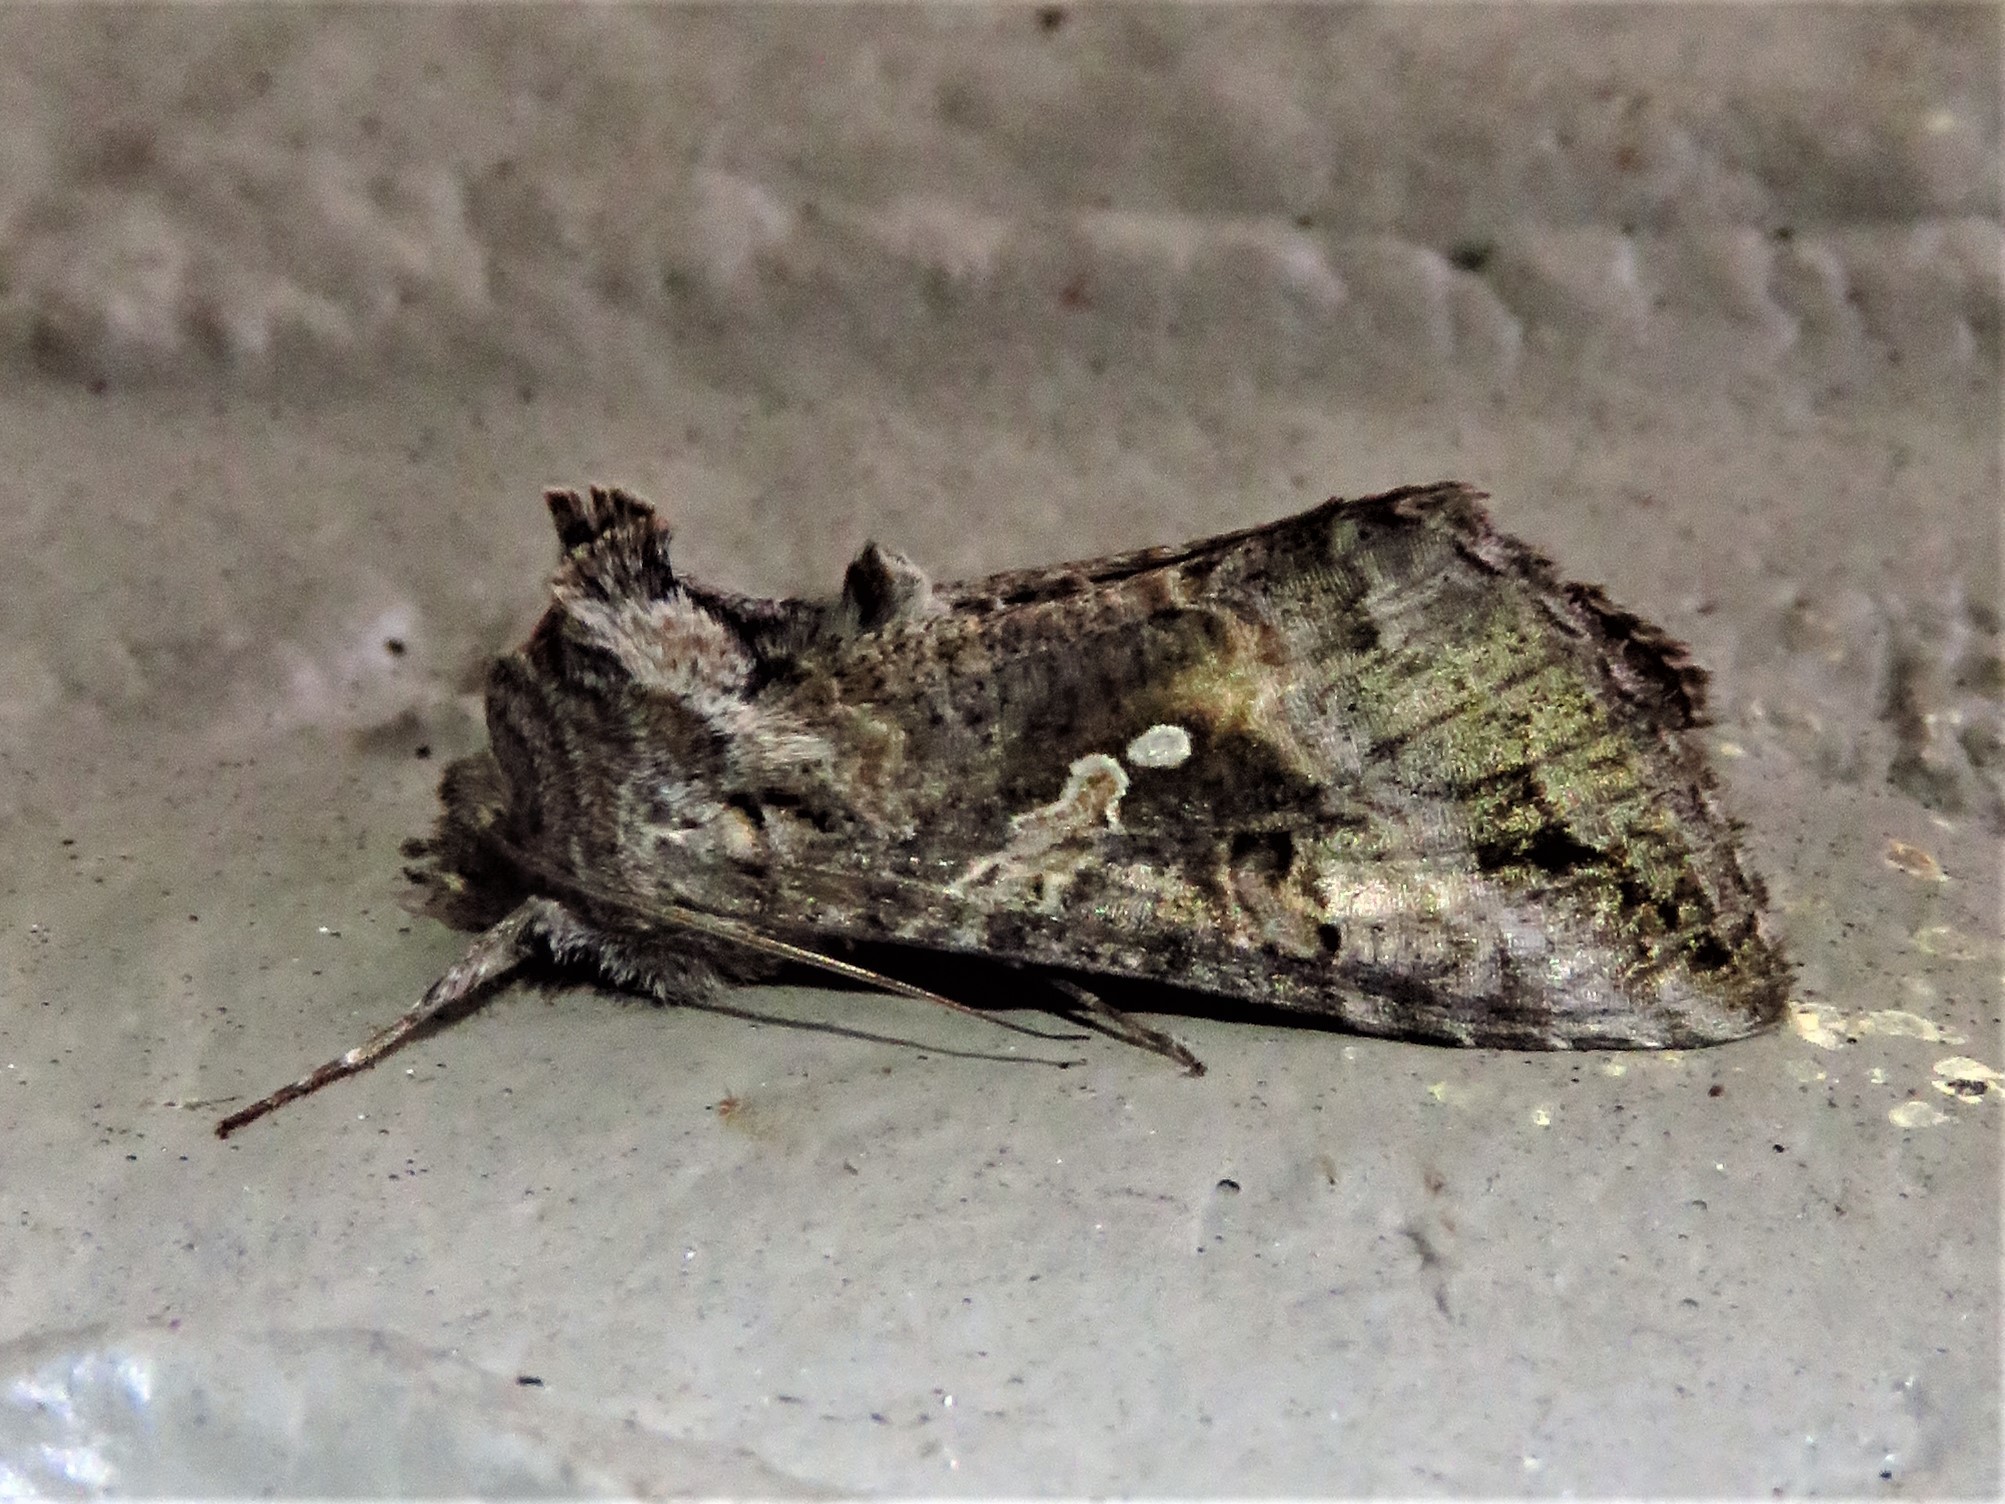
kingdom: Animalia
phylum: Arthropoda
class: Insecta
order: Lepidoptera
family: Noctuidae
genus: Rachiplusia
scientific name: Rachiplusia ou
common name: Gray looper moth
